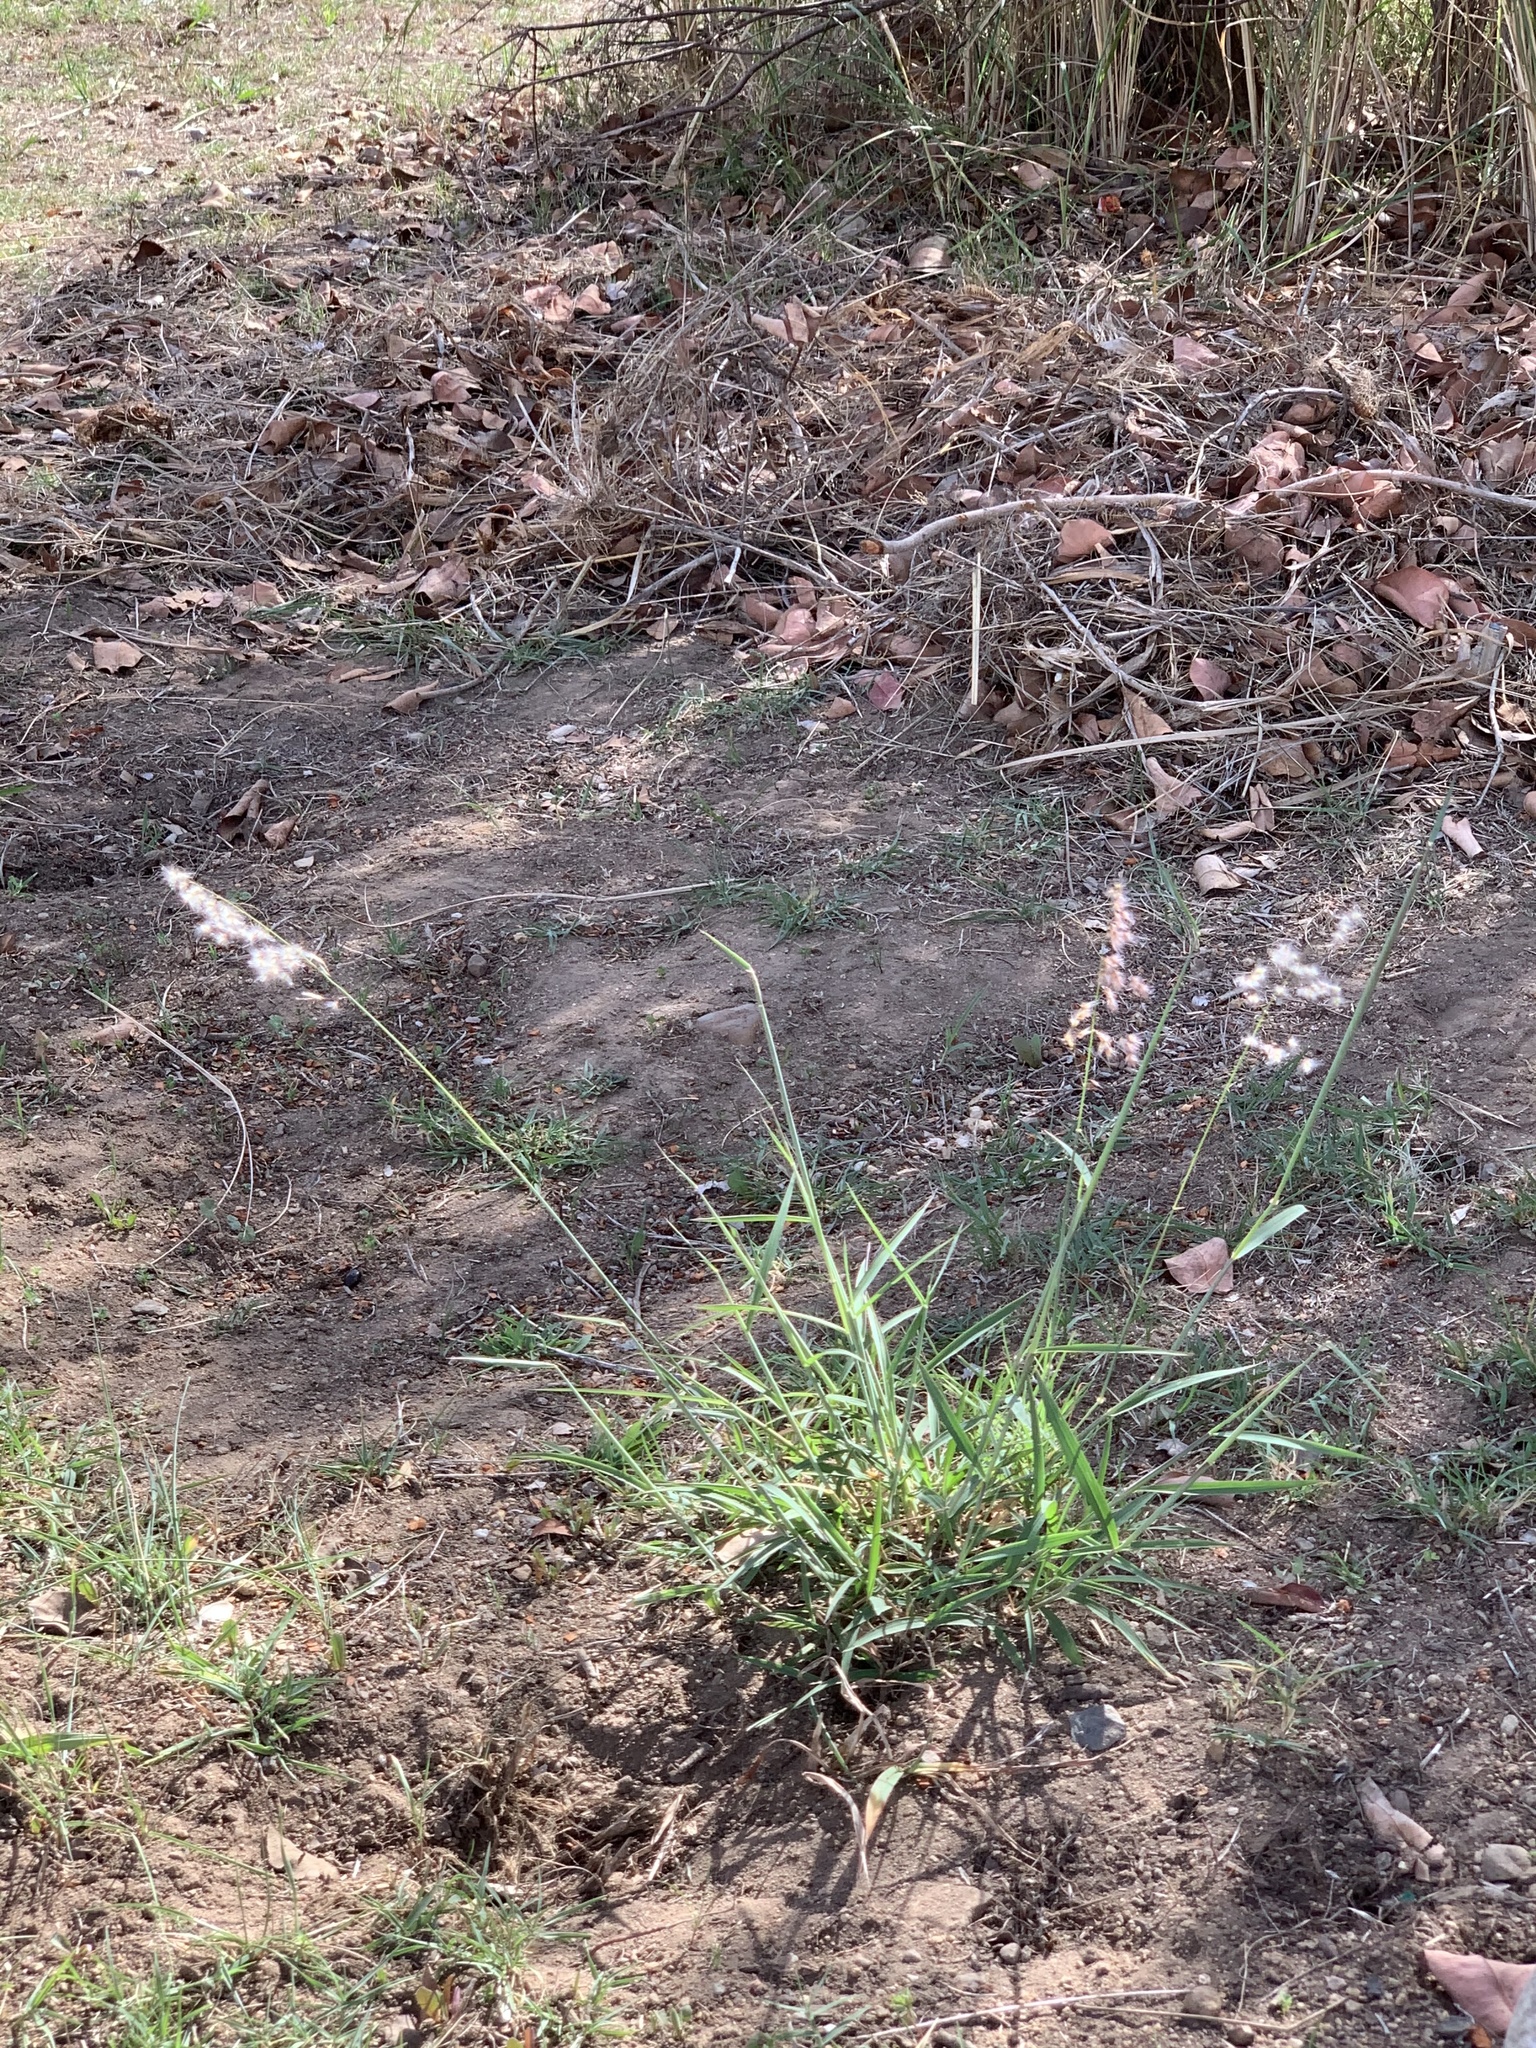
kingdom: Plantae
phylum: Tracheophyta
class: Liliopsida
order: Poales
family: Poaceae
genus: Melinis
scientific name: Melinis repens
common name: Rose natal grass
